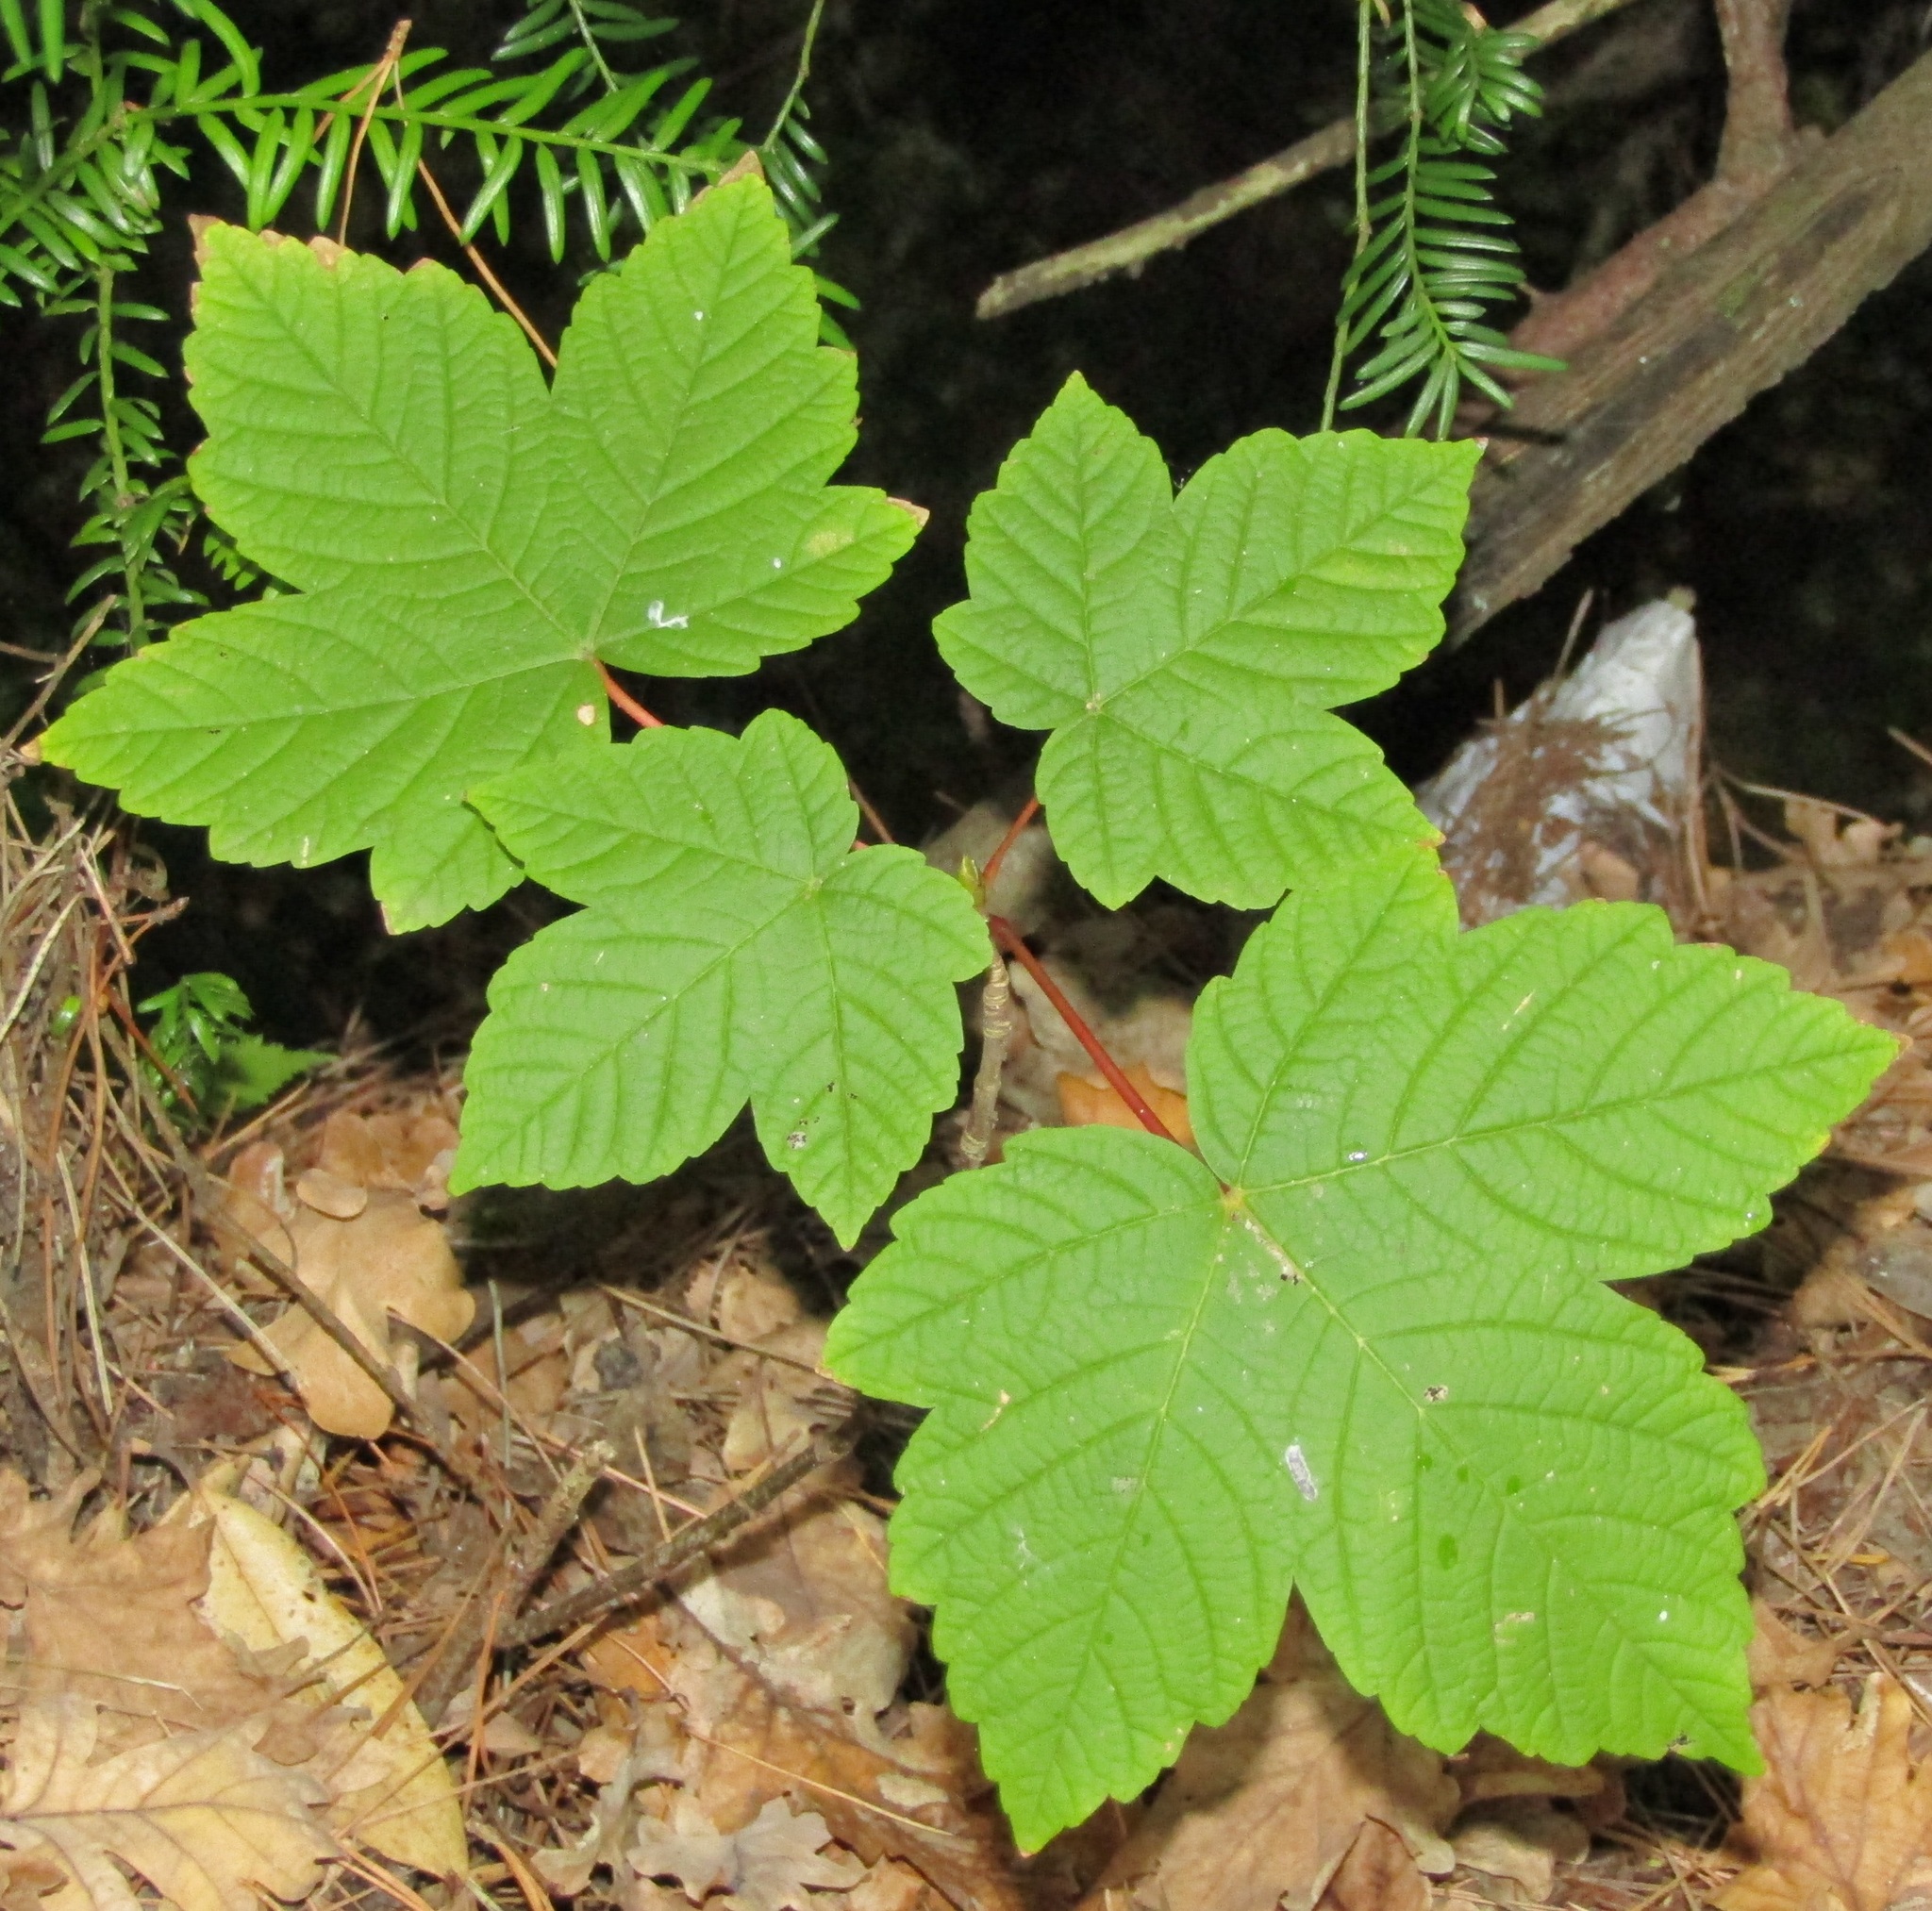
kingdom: Plantae
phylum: Tracheophyta
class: Magnoliopsida
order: Sapindales
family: Sapindaceae
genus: Acer
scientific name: Acer pseudoplatanus
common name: Sycamore
